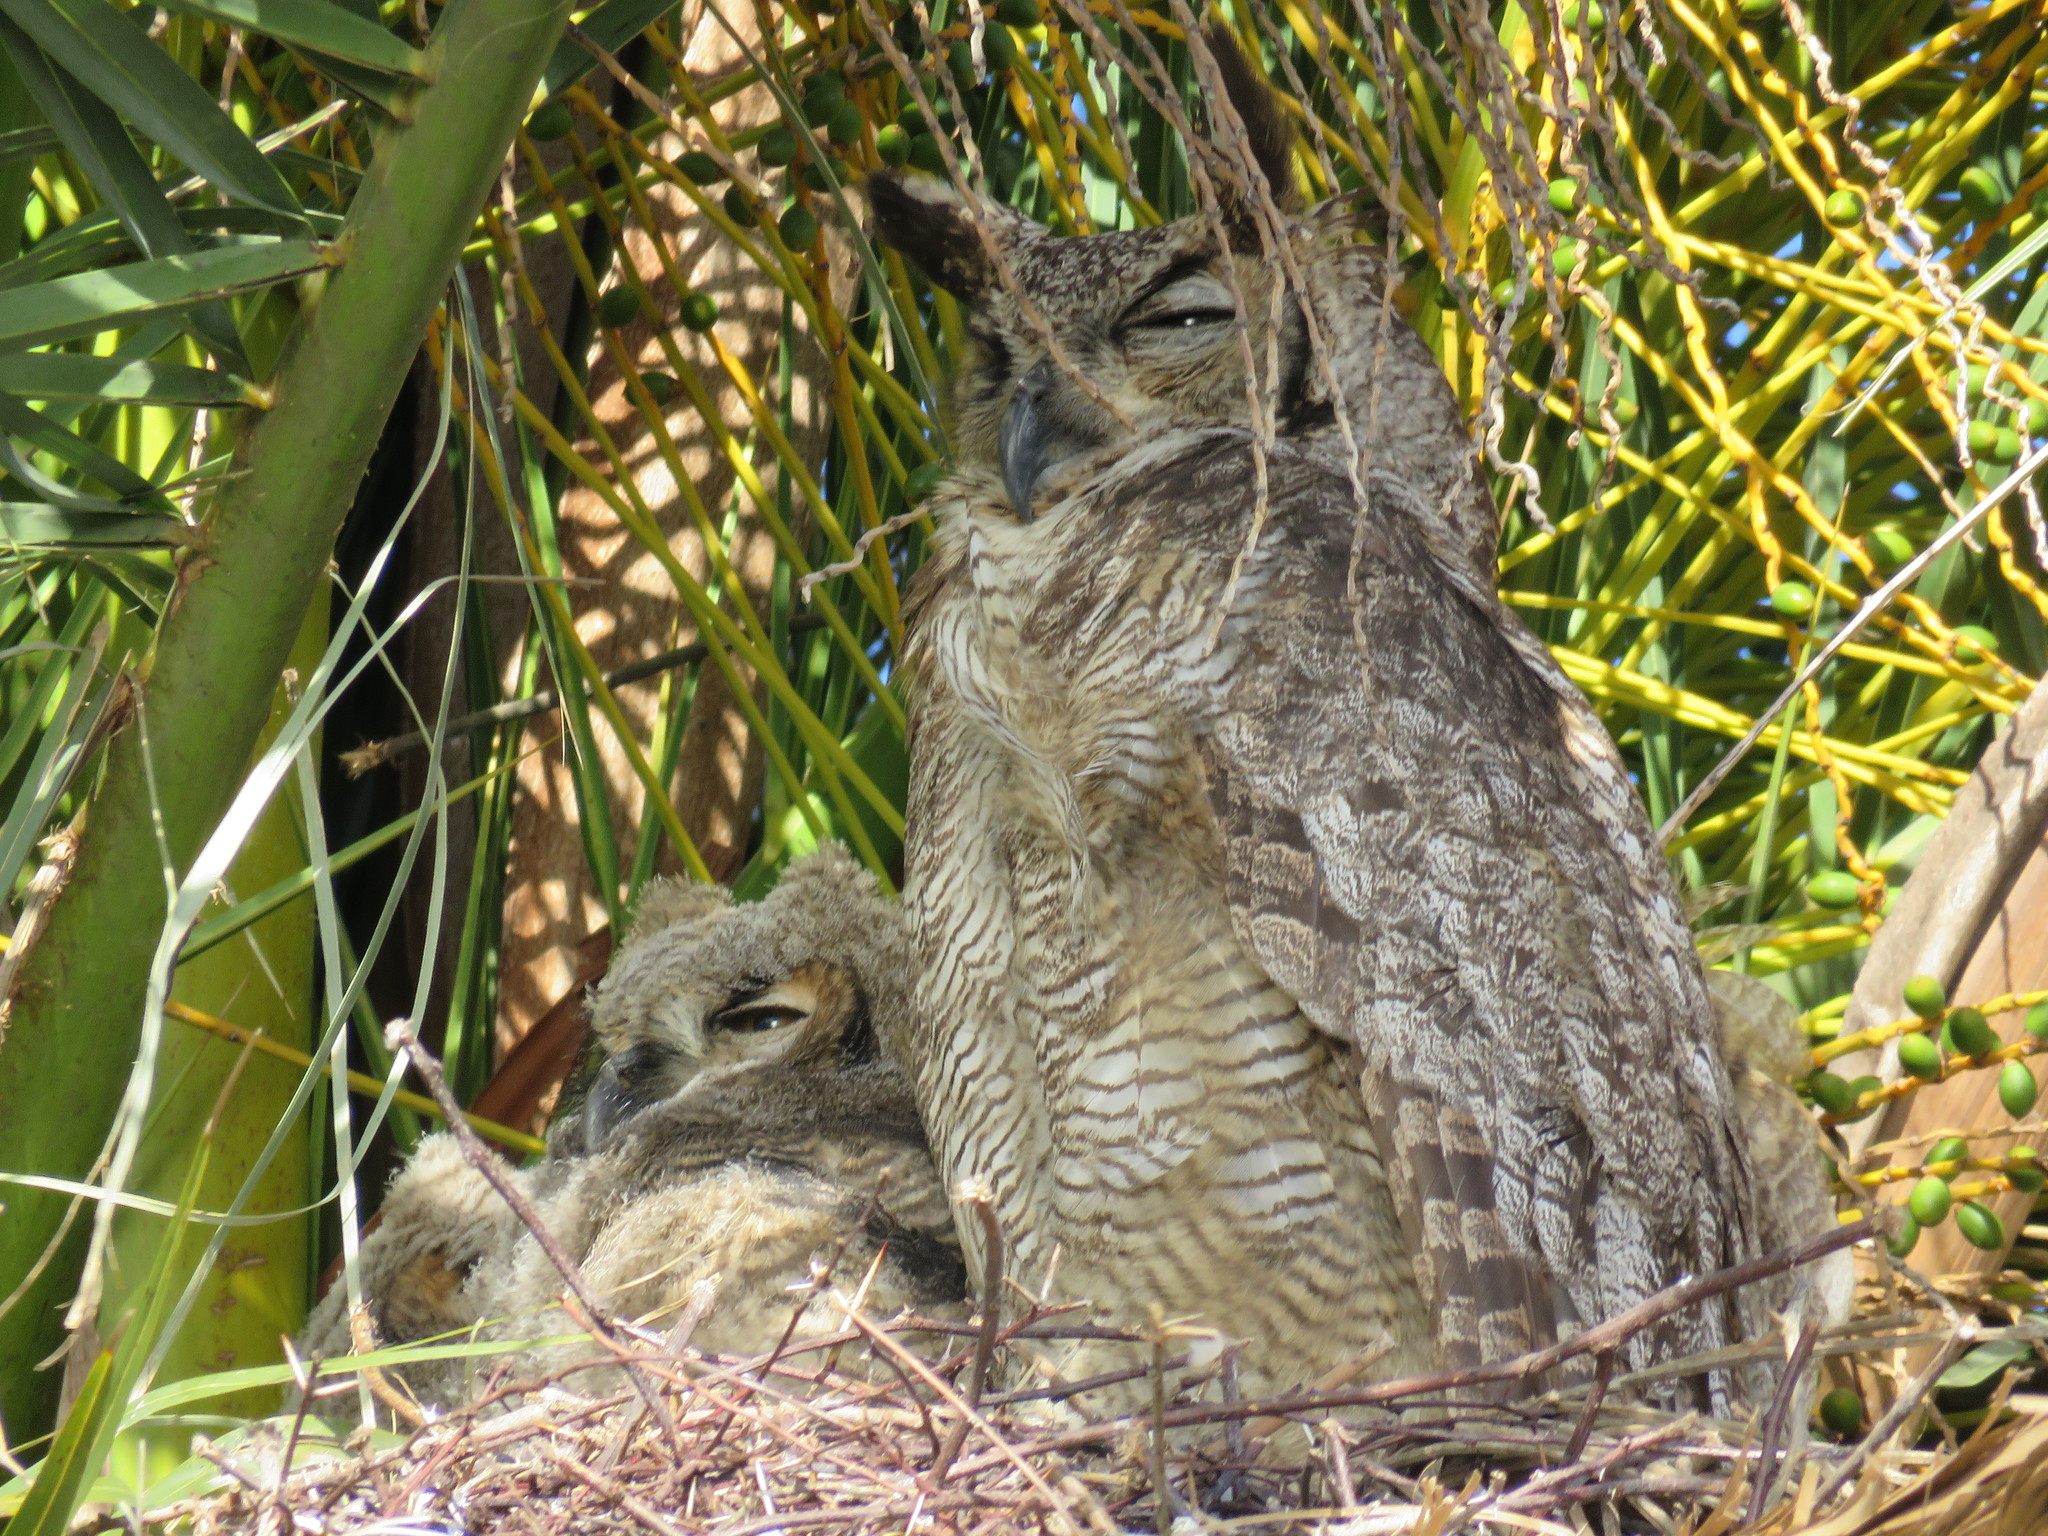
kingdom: Animalia
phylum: Chordata
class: Aves
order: Strigiformes
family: Strigidae
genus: Bubo
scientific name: Bubo virginianus
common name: Great horned owl
